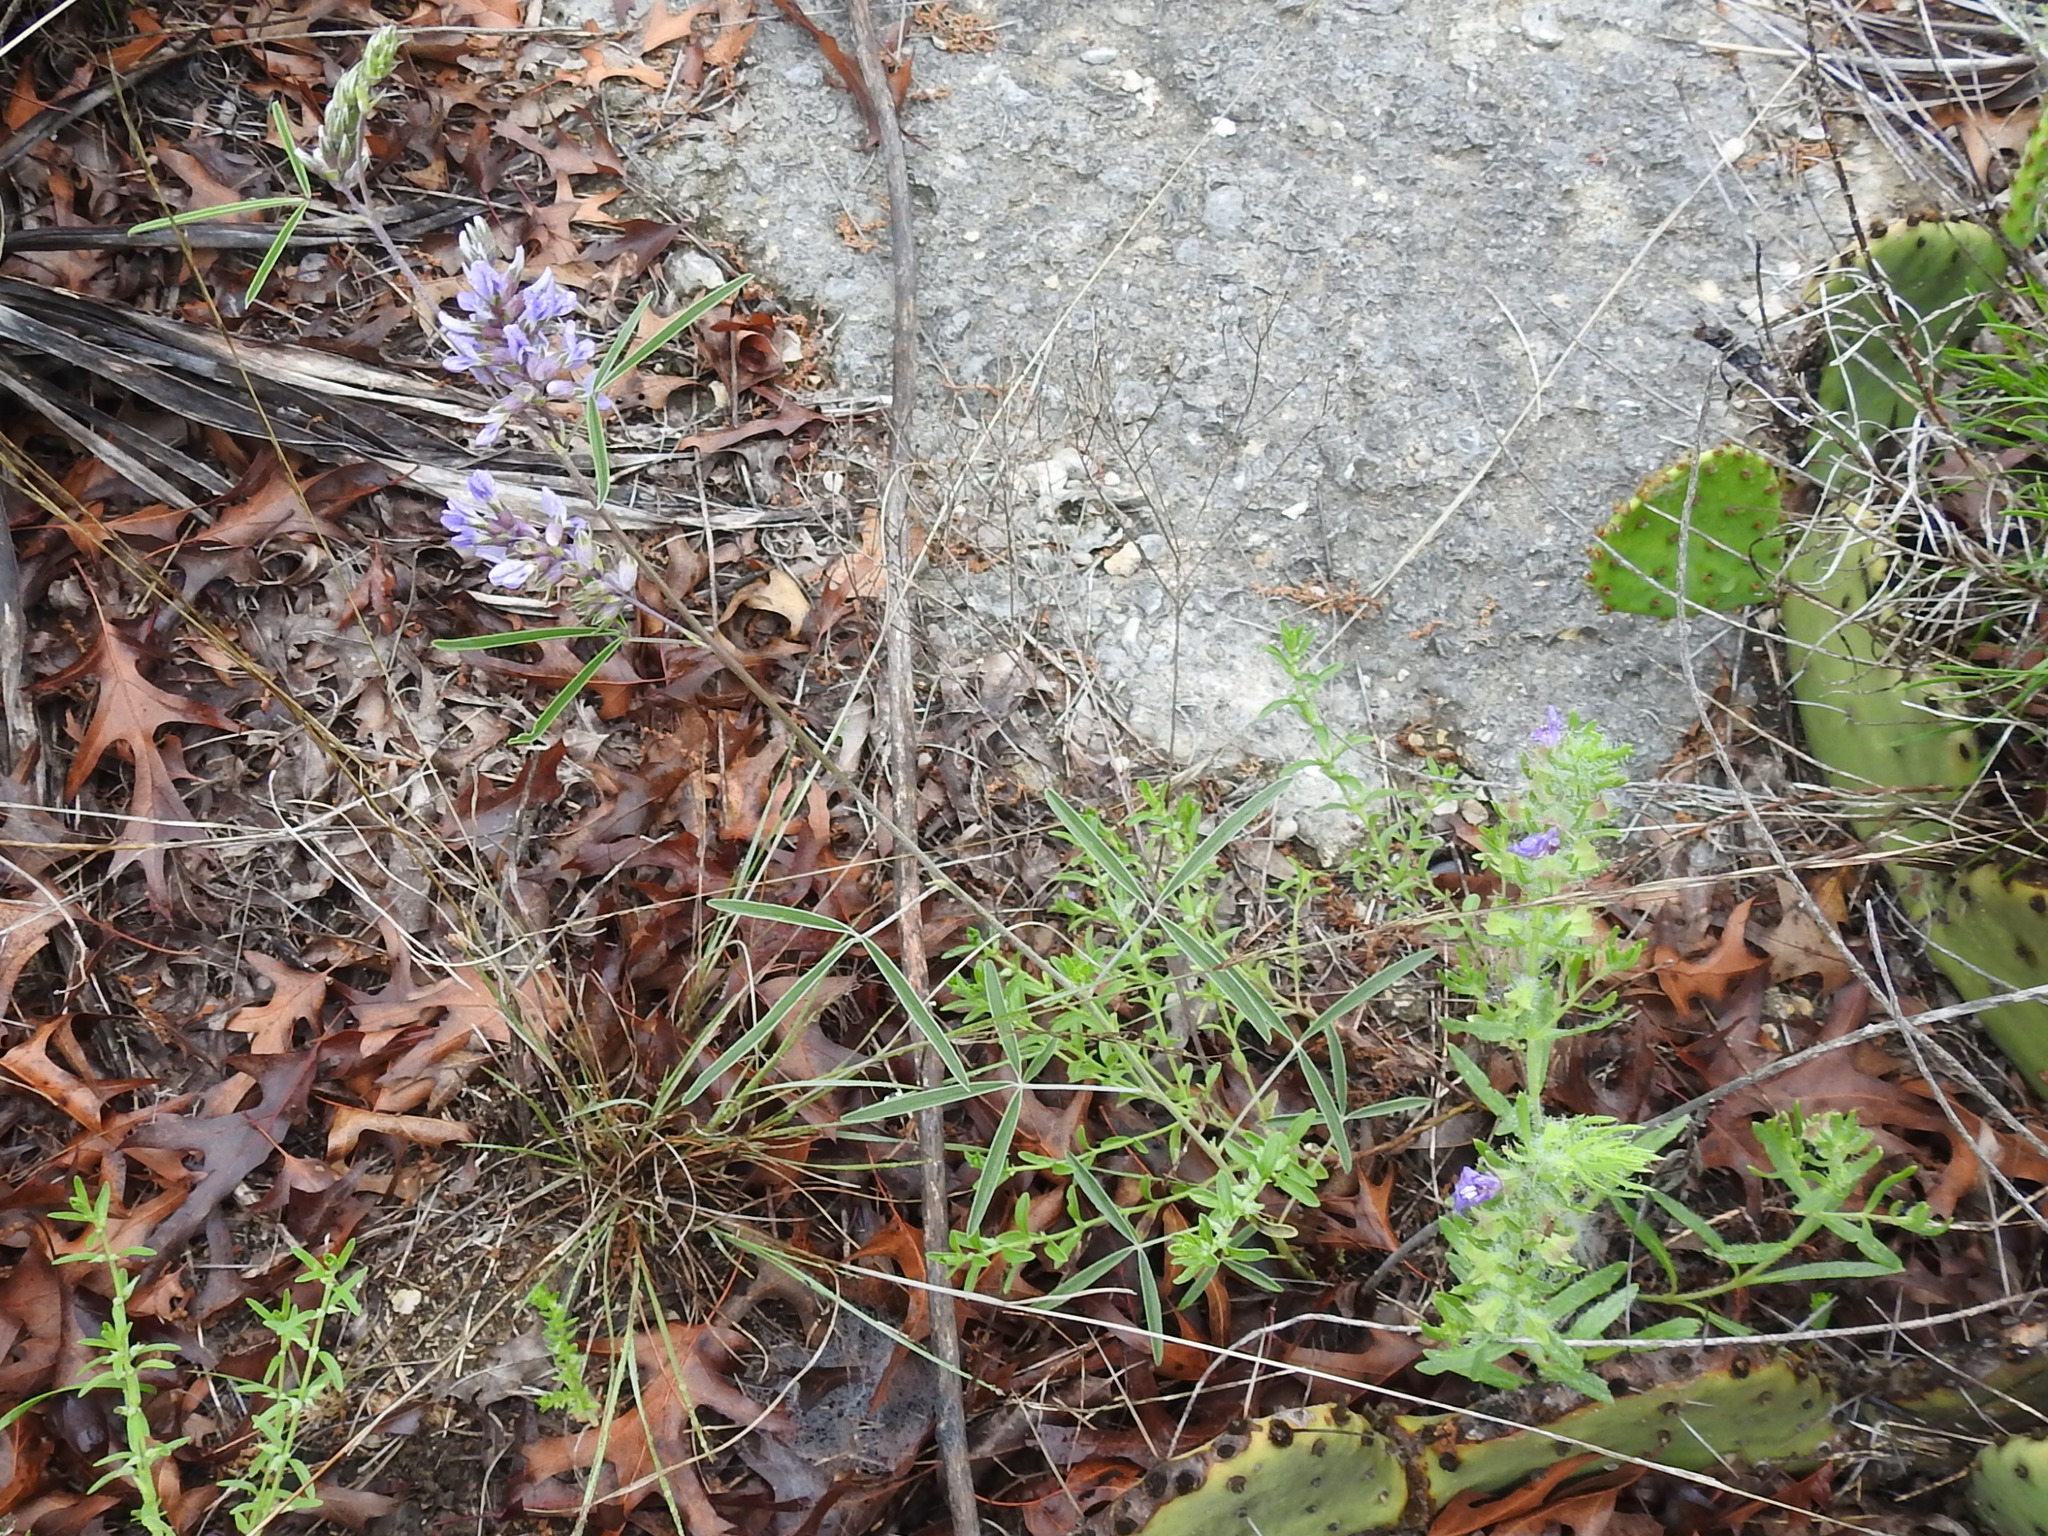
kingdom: Plantae
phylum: Tracheophyta
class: Magnoliopsida
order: Fabales
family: Fabaceae
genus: Pediomelum
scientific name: Pediomelum cyphocalyx
